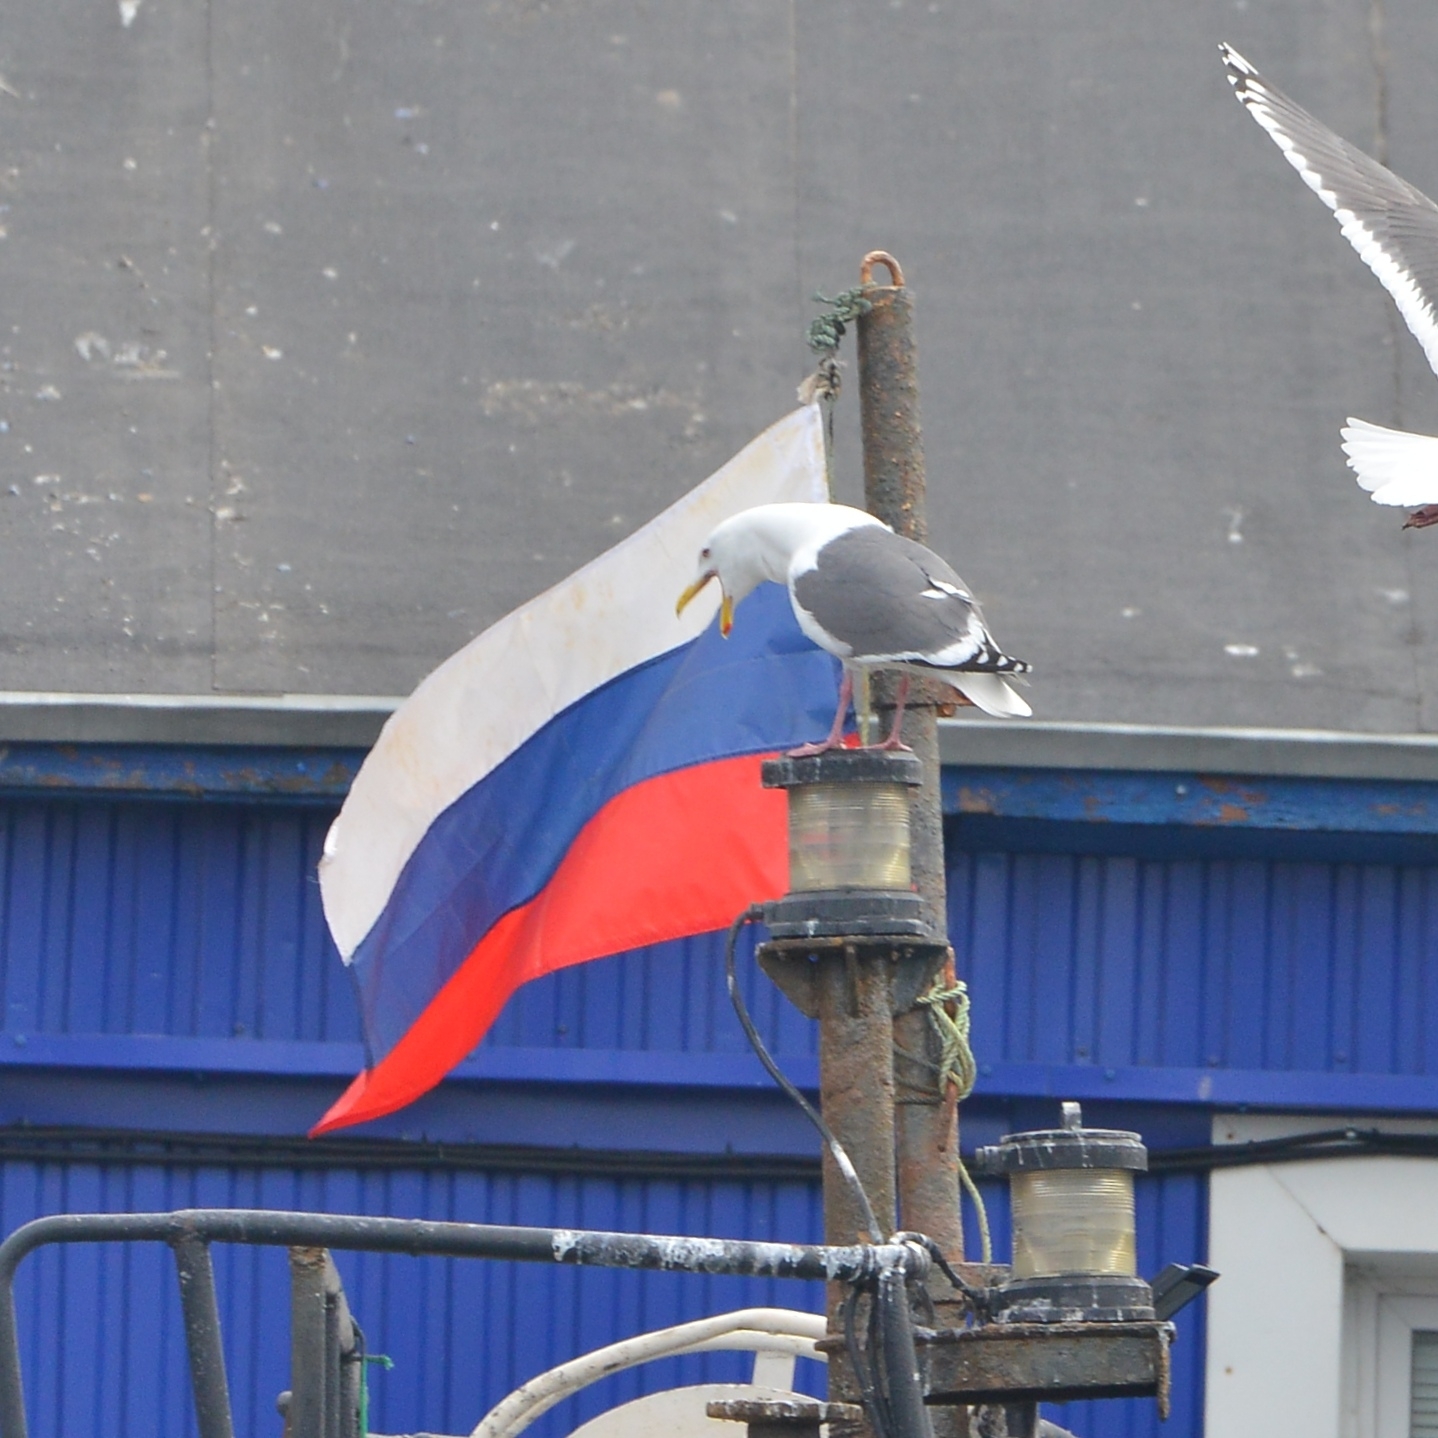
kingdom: Animalia
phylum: Chordata
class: Aves
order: Charadriiformes
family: Laridae
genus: Larus
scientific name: Larus schistisagus
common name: Slaty-backed gull
